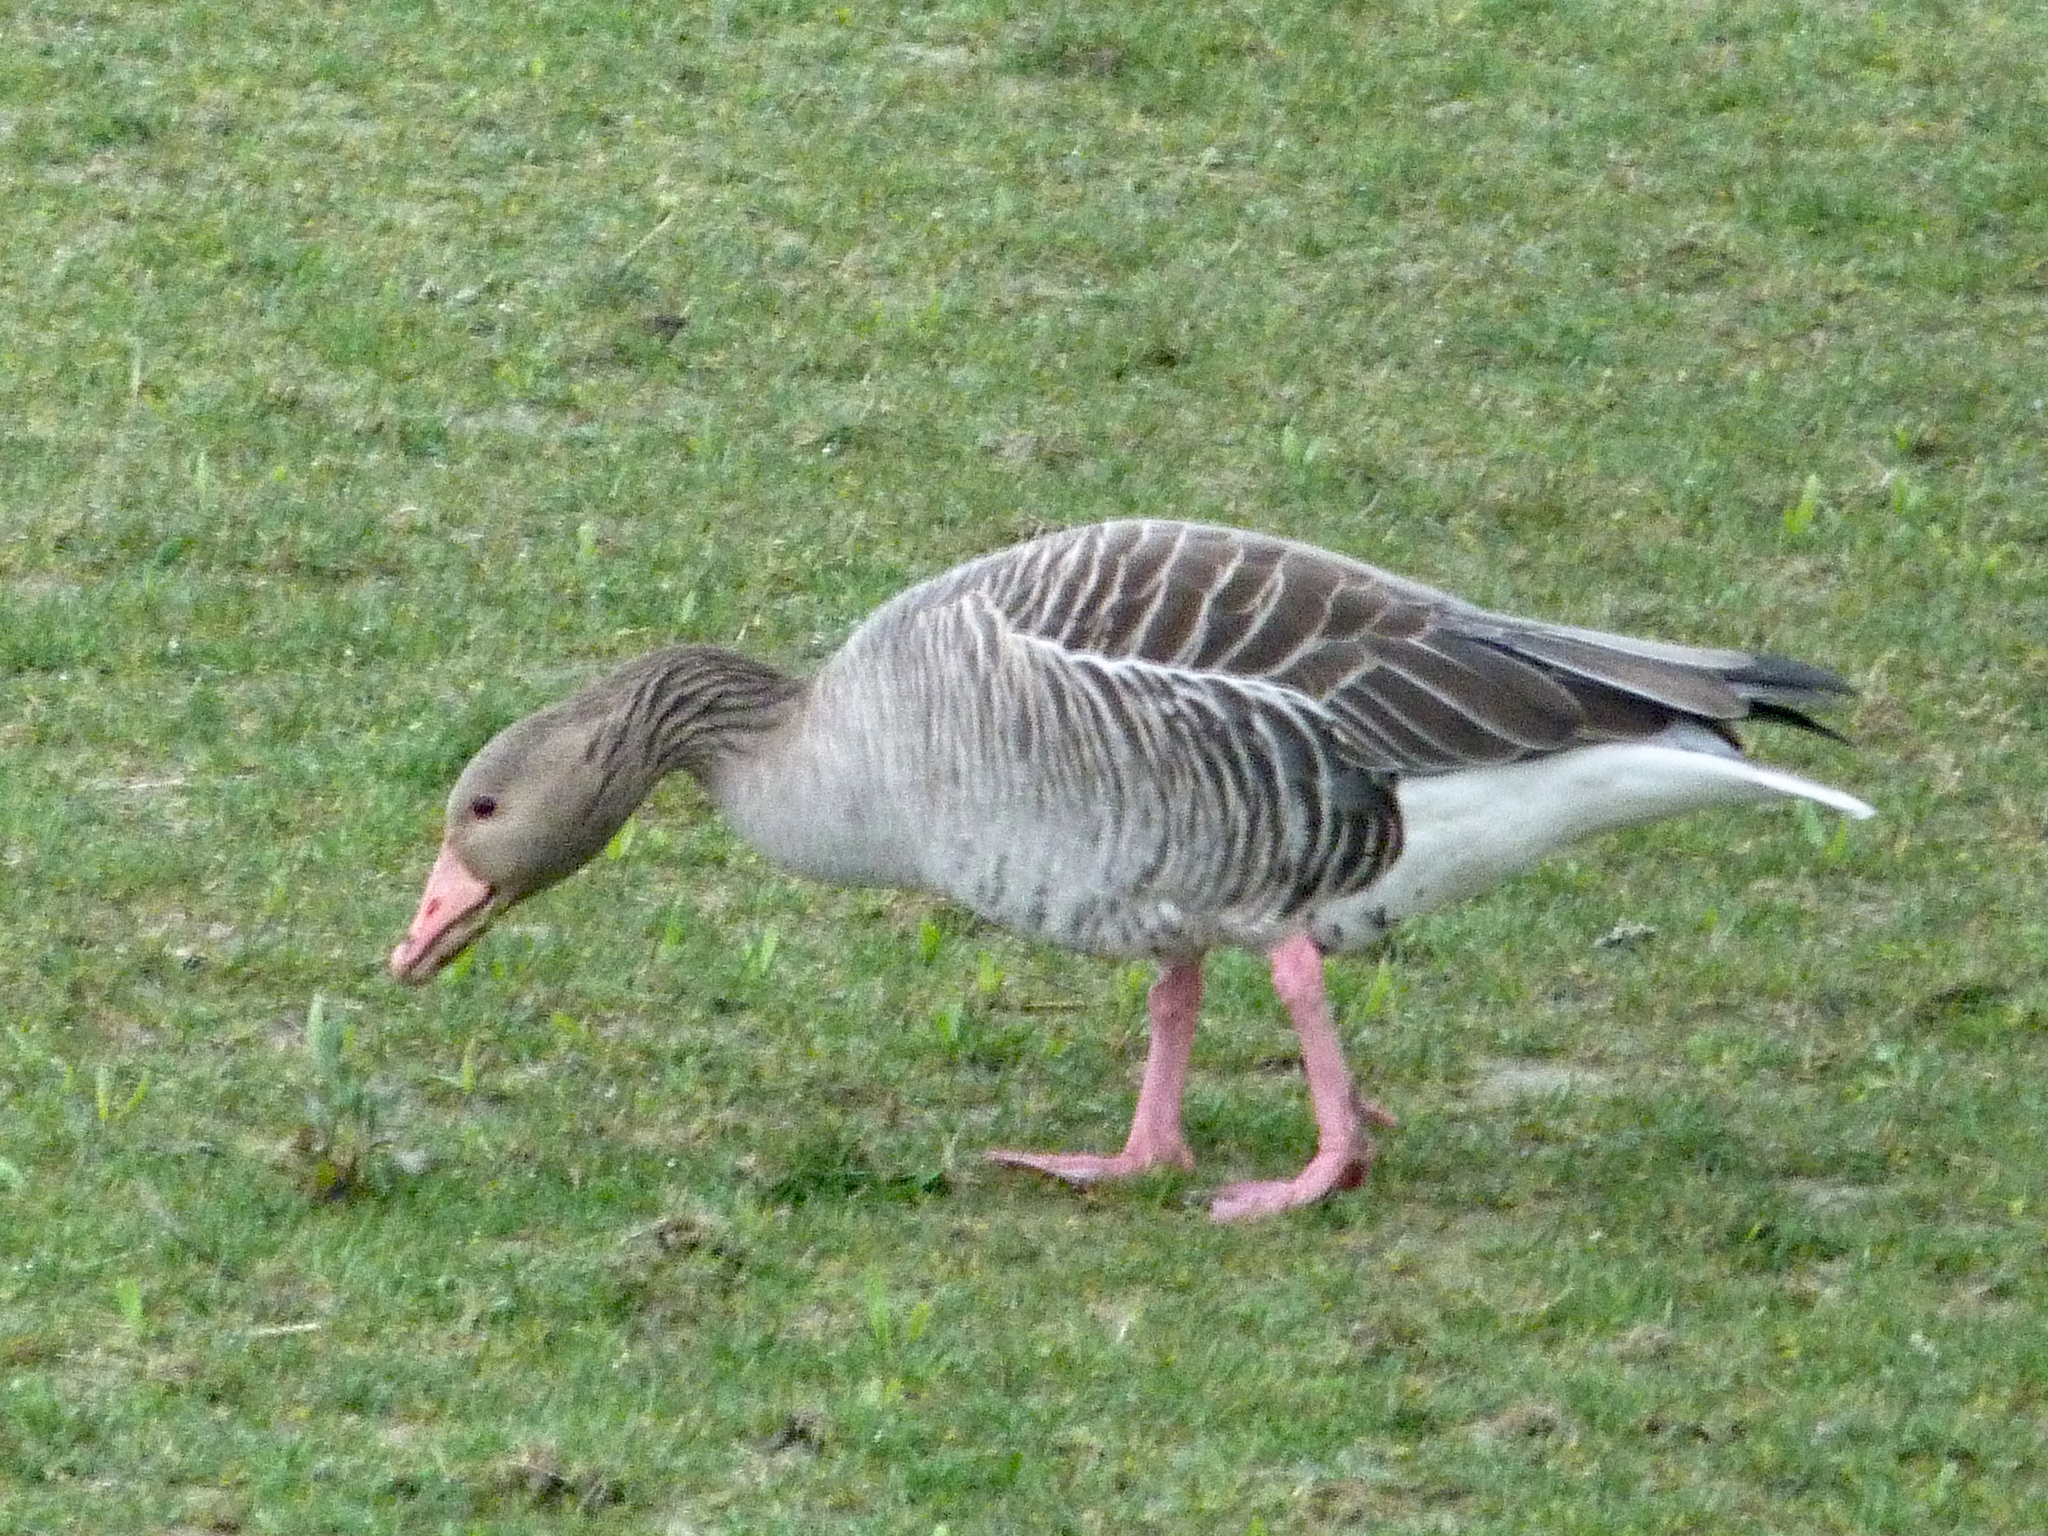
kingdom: Animalia
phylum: Chordata
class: Aves
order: Anseriformes
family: Anatidae
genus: Anser
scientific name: Anser anser
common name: Greylag goose
